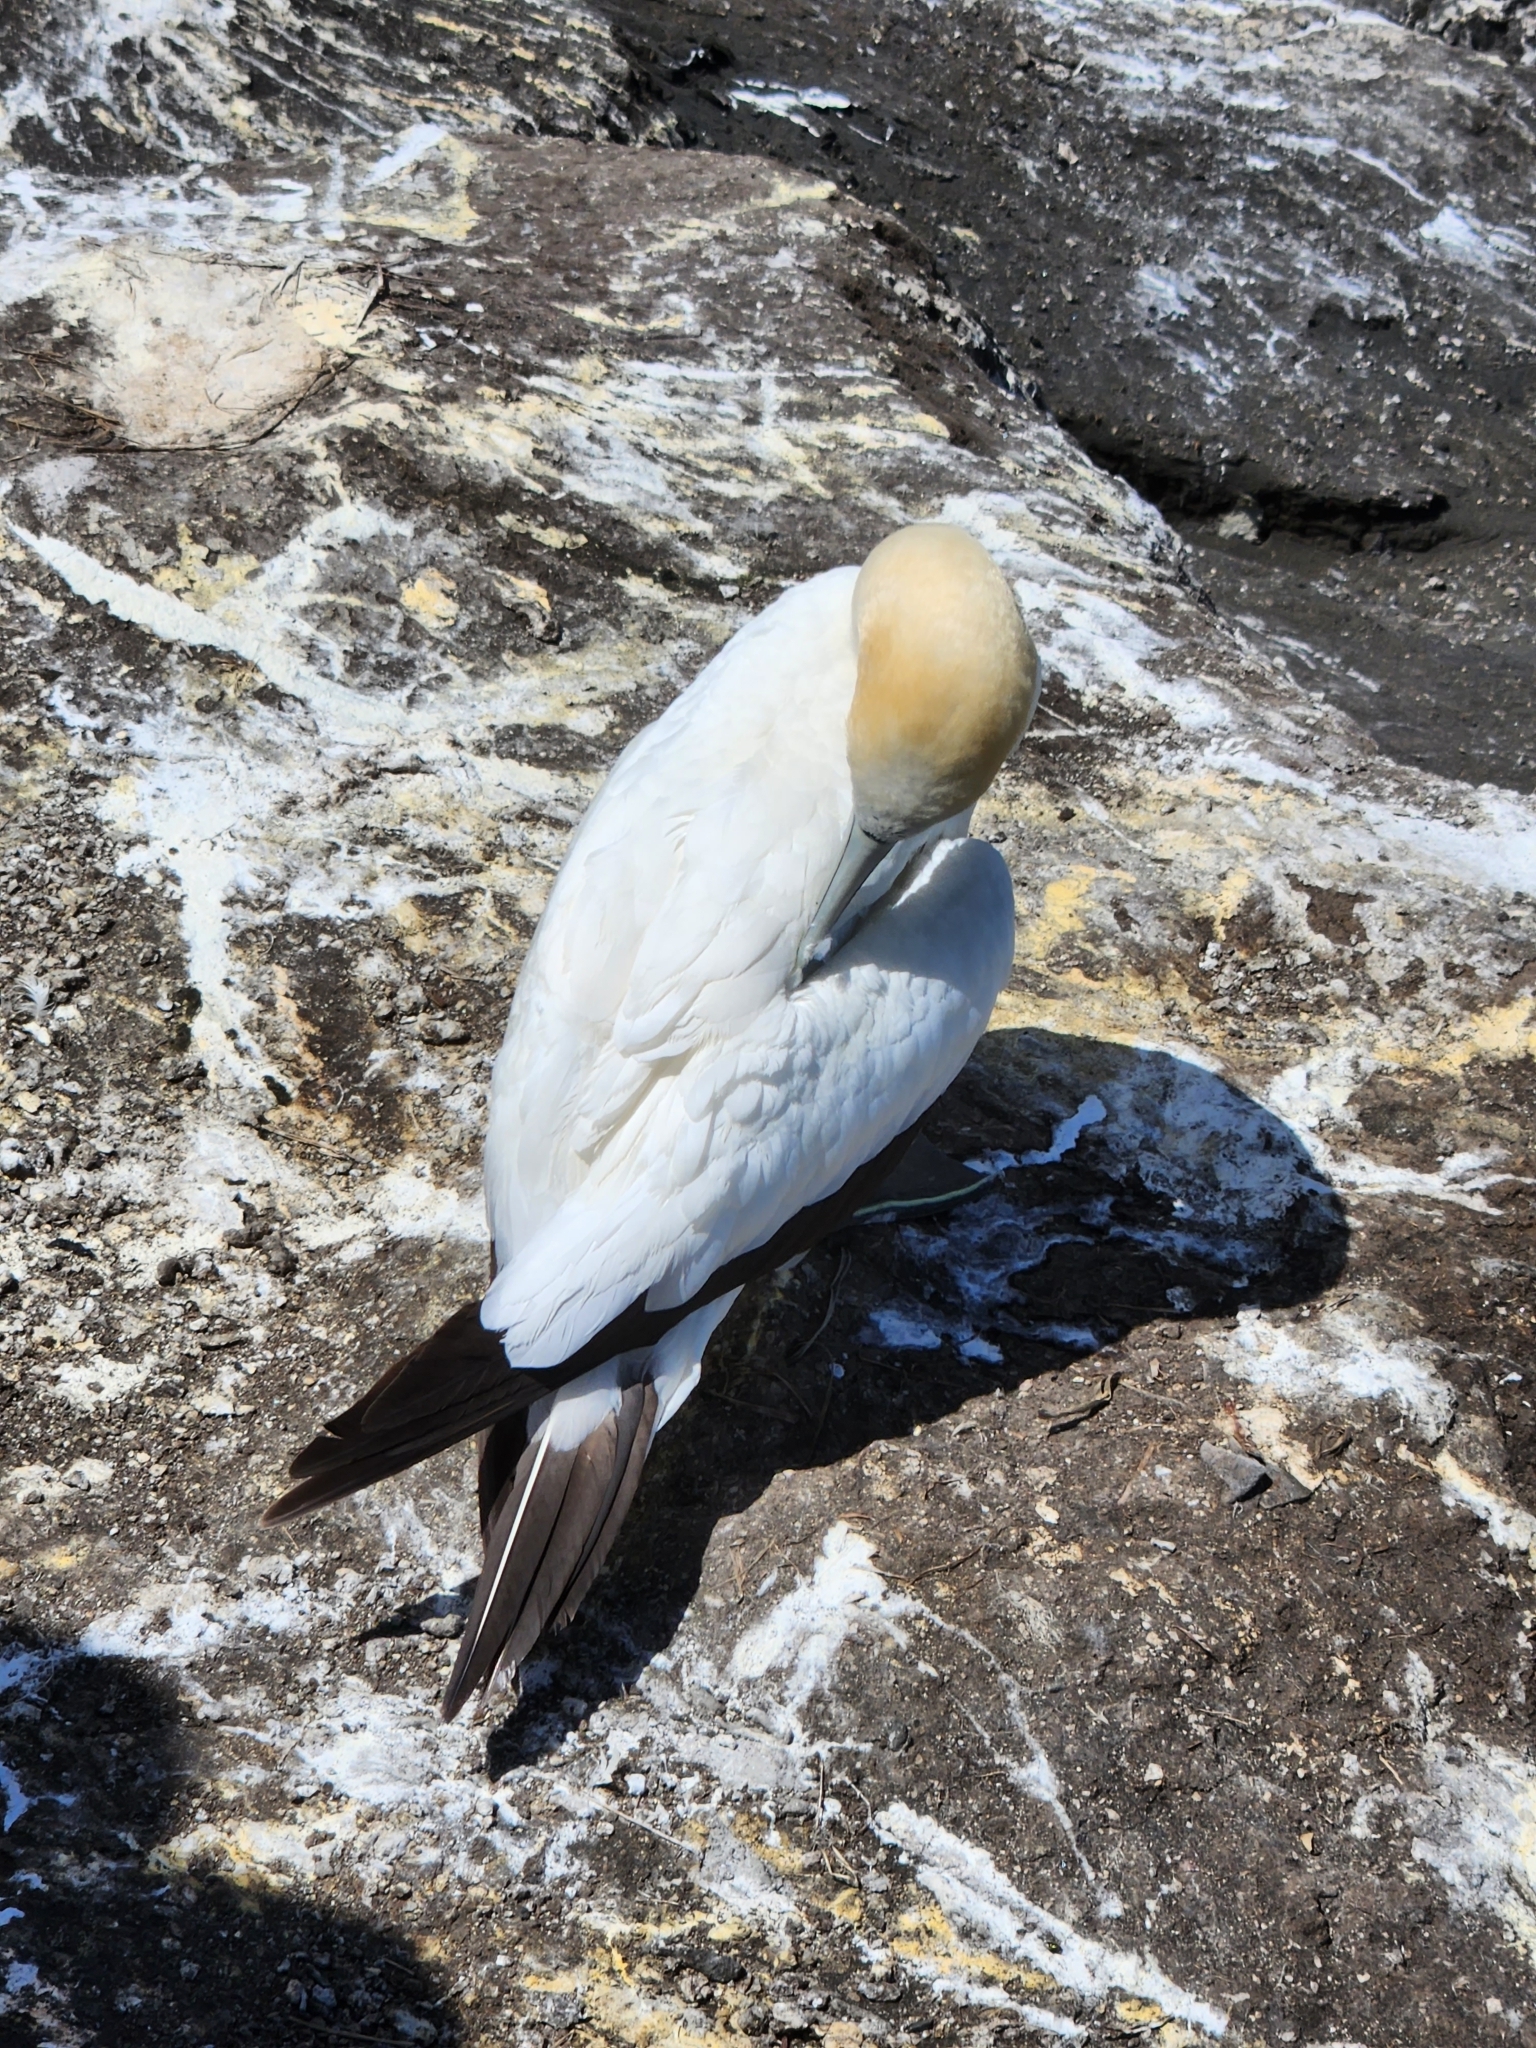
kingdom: Animalia
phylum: Chordata
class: Aves
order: Suliformes
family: Sulidae
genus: Morus
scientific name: Morus serrator
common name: Australasian gannet
